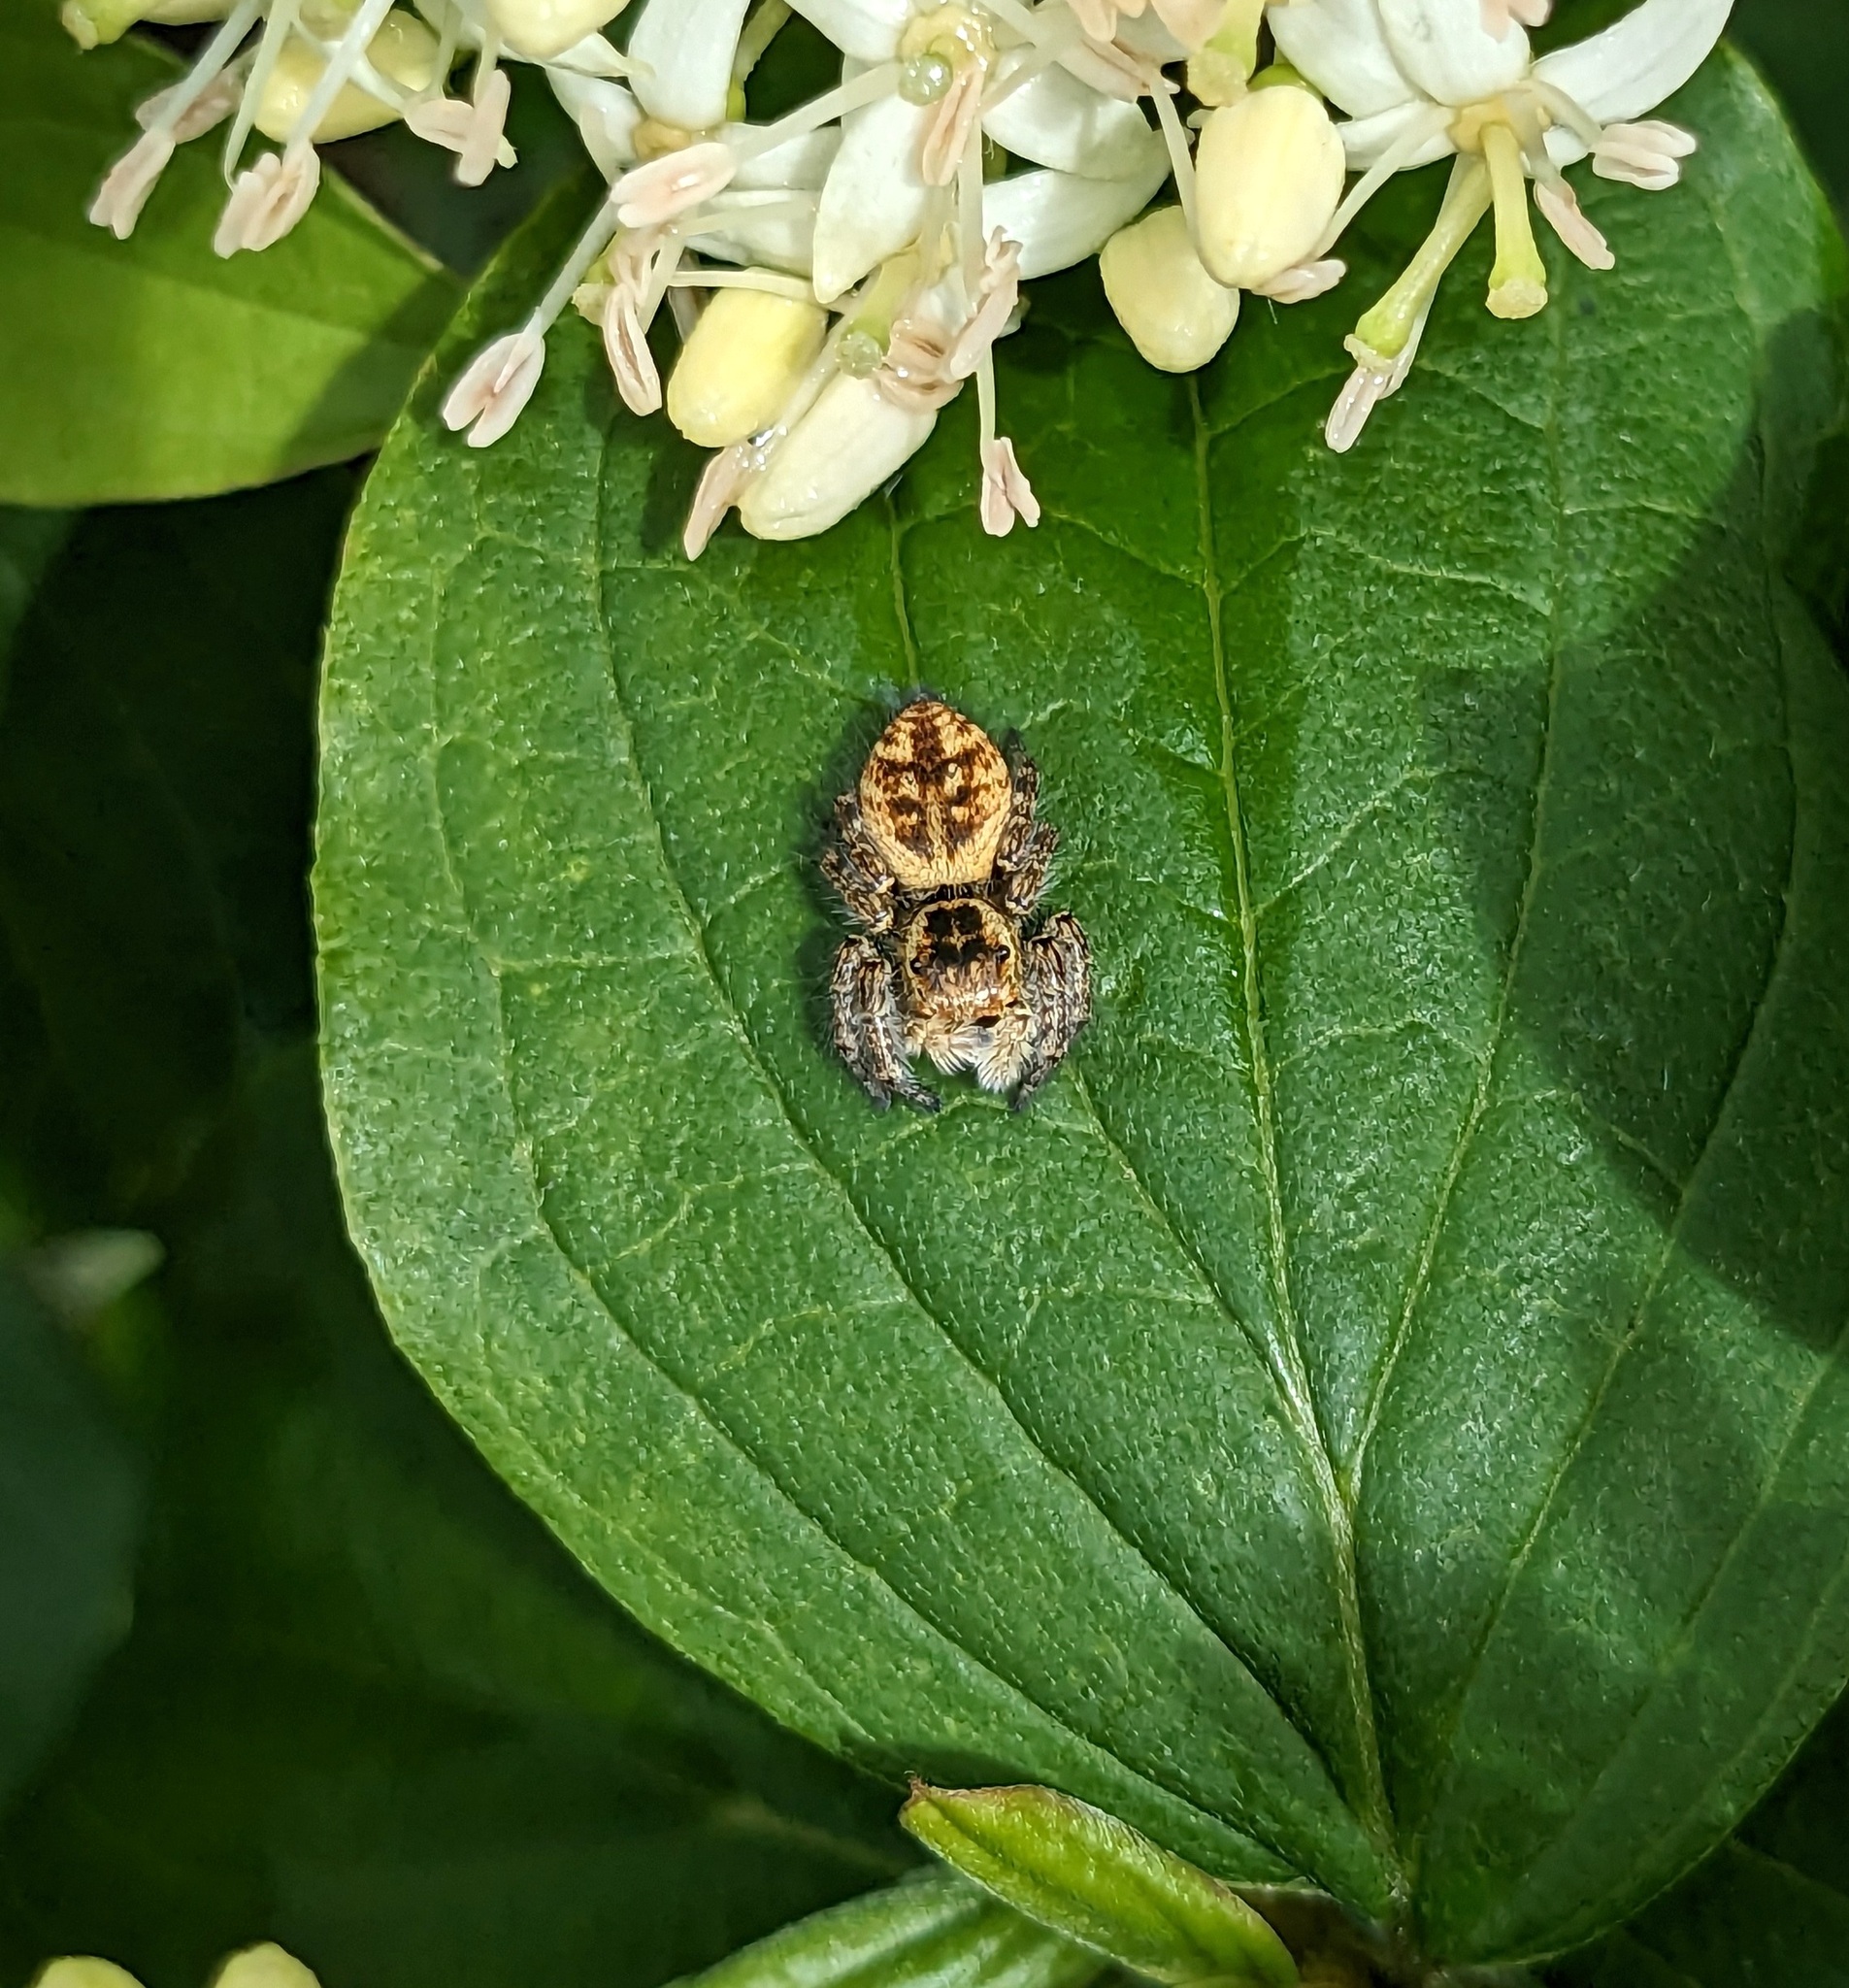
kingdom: Animalia
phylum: Arthropoda
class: Arachnida
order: Araneae
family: Salticidae
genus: Carrhotus
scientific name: Carrhotus xanthogramma
